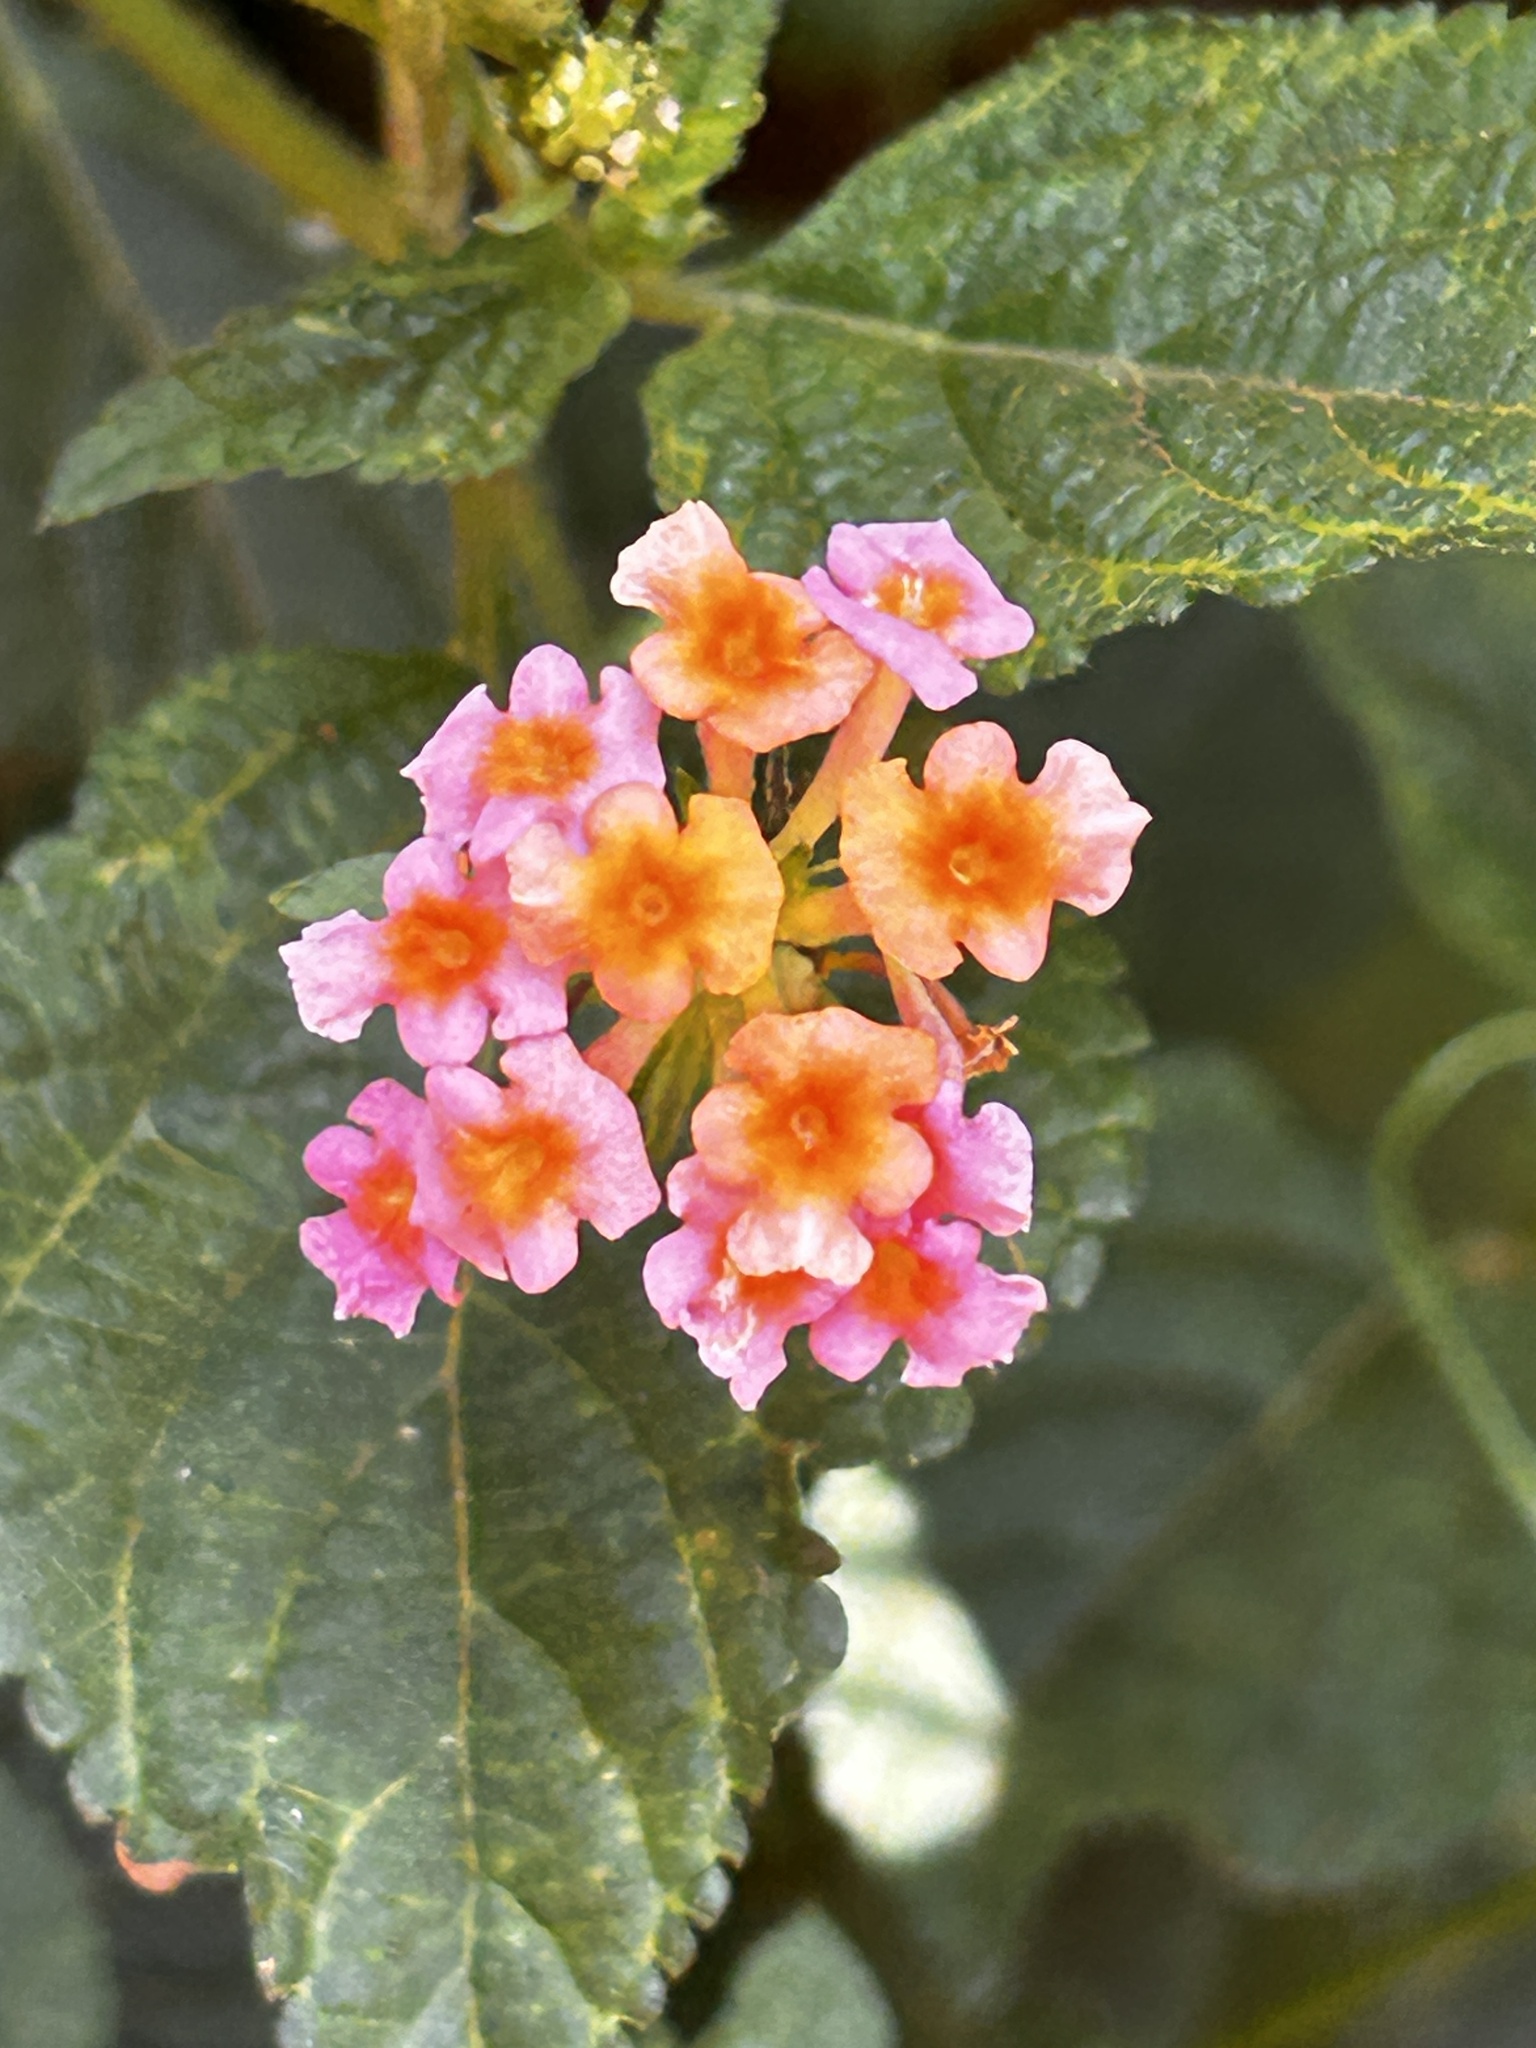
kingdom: Plantae
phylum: Tracheophyta
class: Magnoliopsida
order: Lamiales
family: Verbenaceae
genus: Lantana
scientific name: Lantana camara
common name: Lantana
